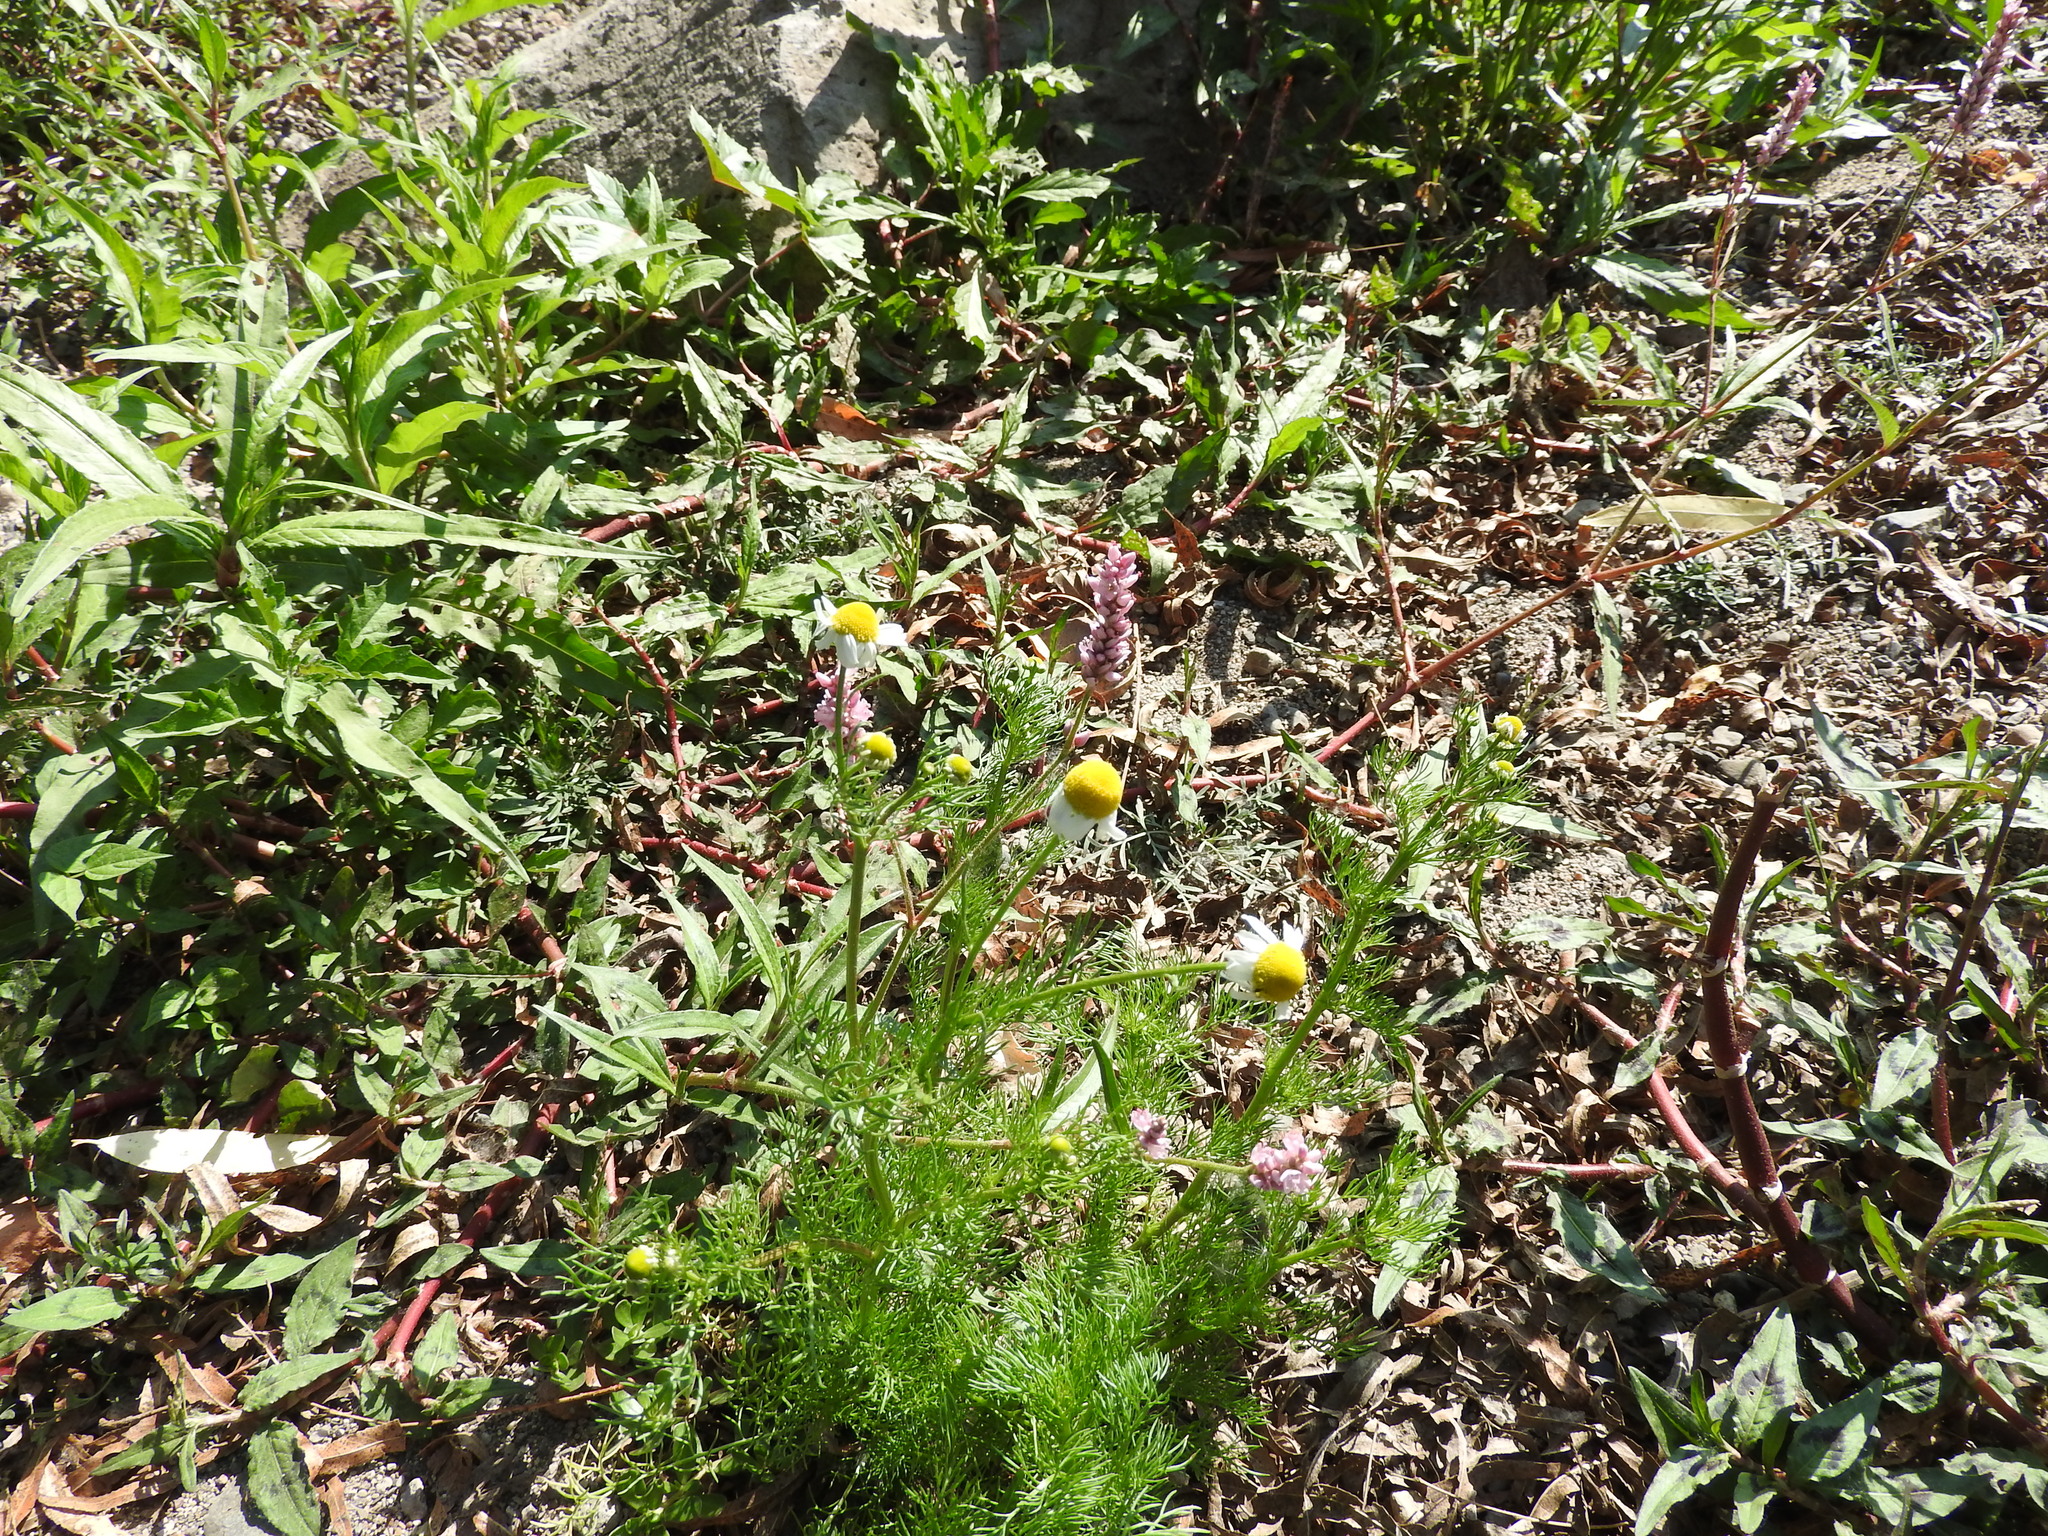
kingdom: Plantae
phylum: Tracheophyta
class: Magnoliopsida
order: Asterales
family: Asteraceae
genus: Matricaria
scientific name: Matricaria chamomilla
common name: Scented mayweed
